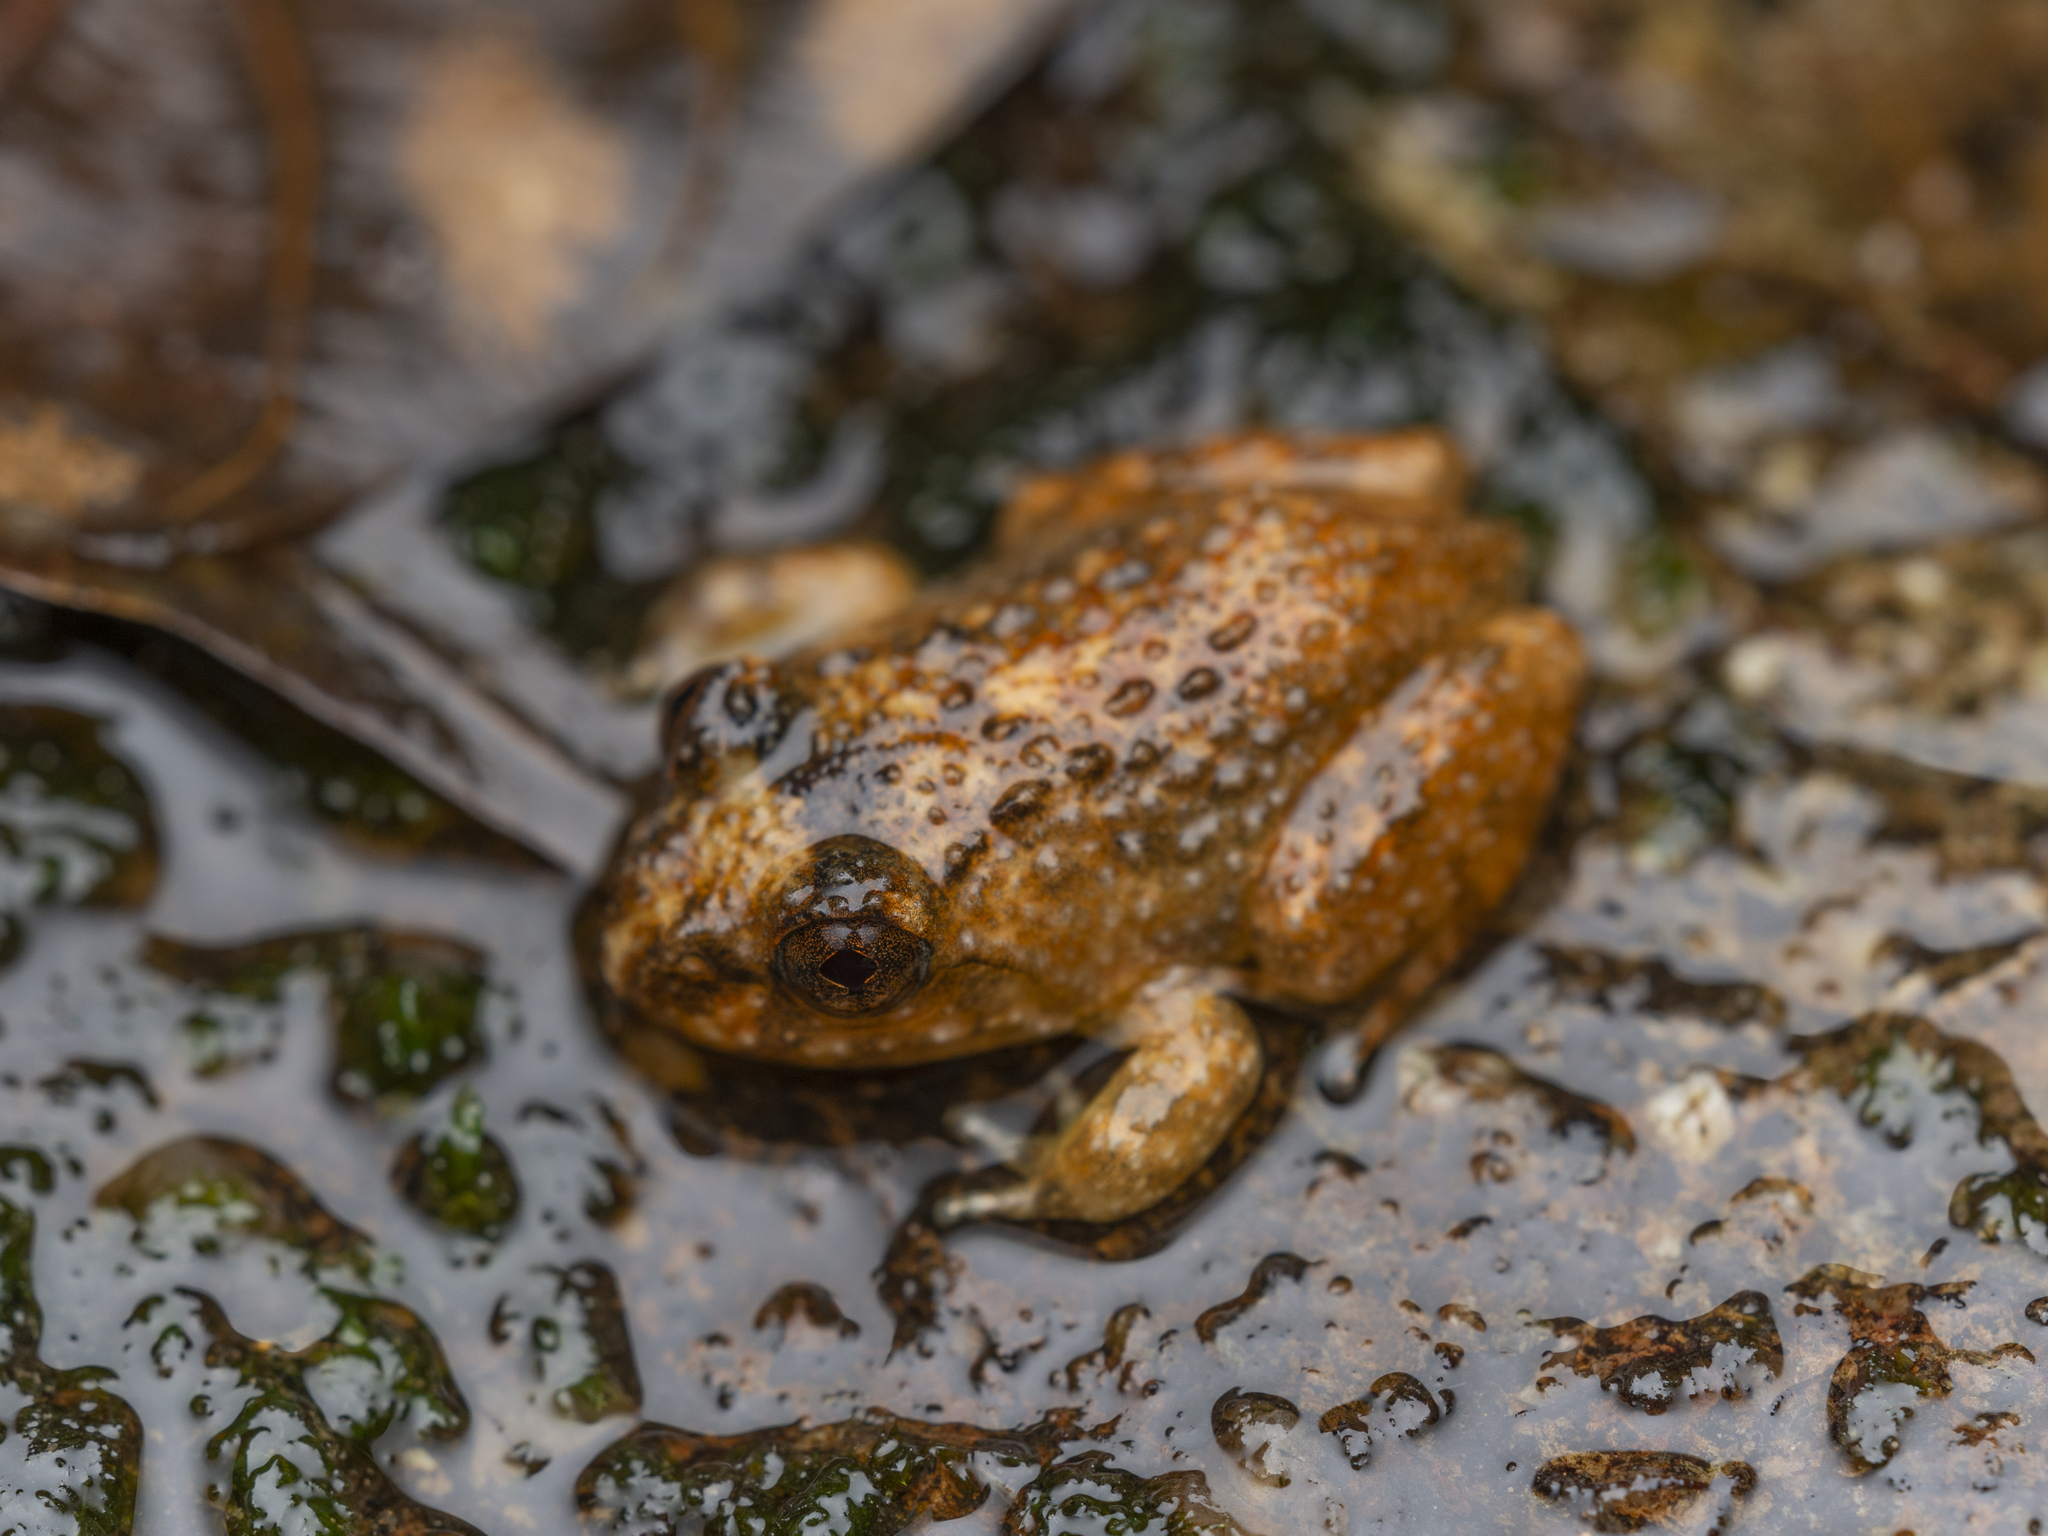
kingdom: Animalia
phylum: Chordata
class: Amphibia
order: Anura
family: Dicroglossidae
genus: Quasipaa
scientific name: Quasipaa exilispinosa
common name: Hong kong paa frog
